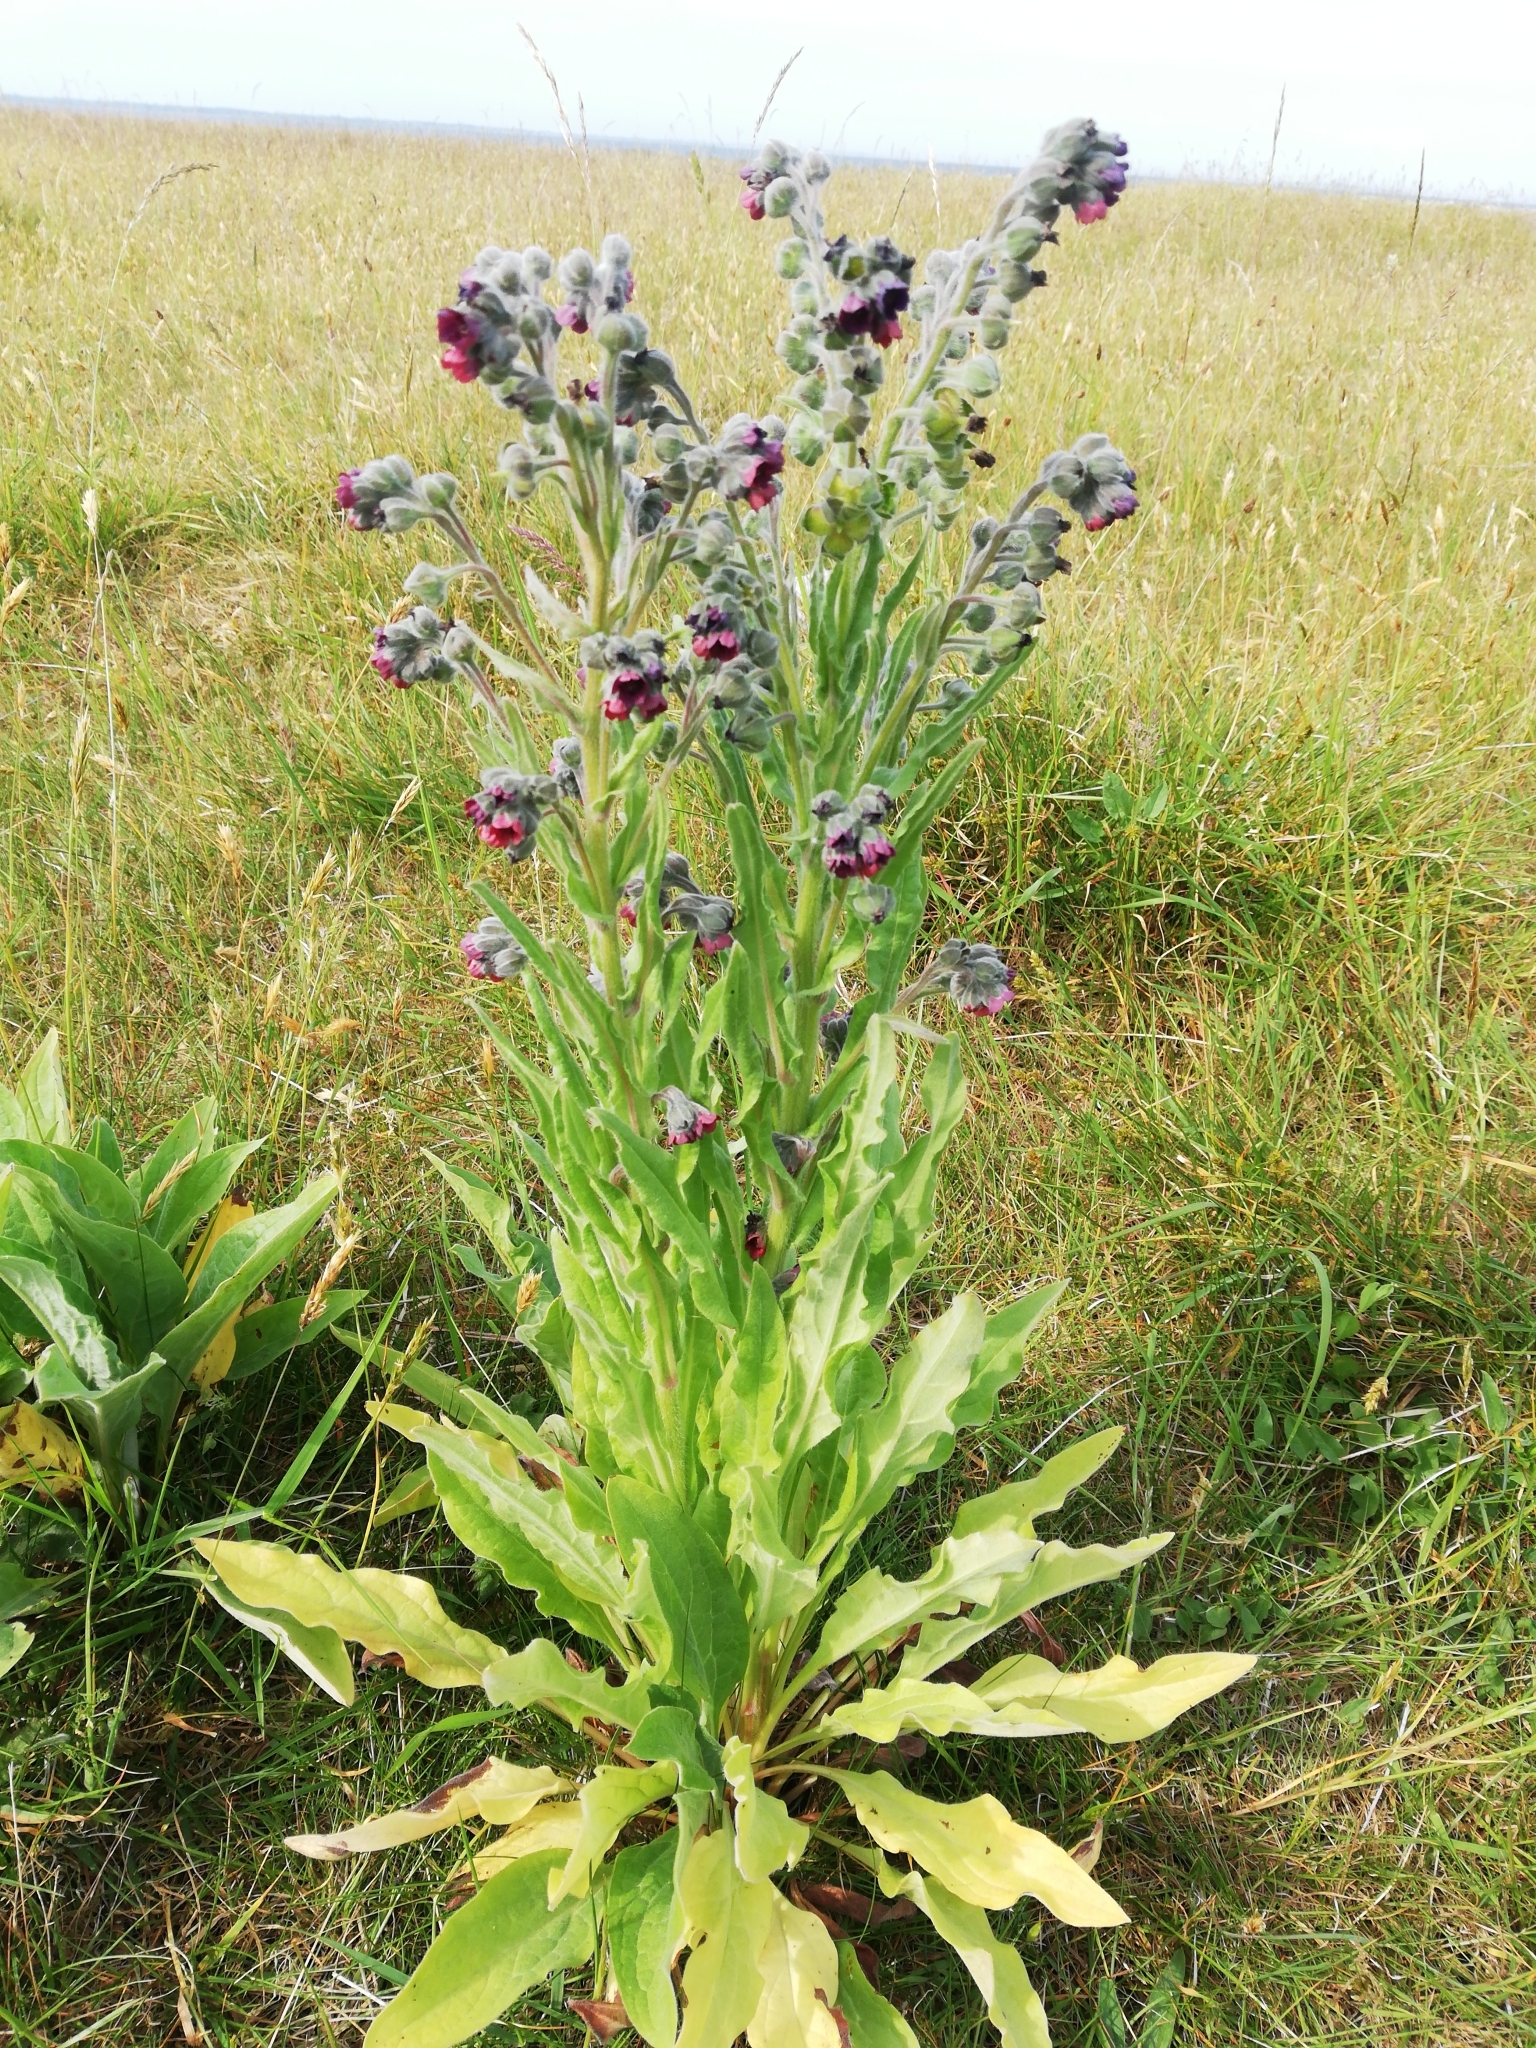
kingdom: Plantae
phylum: Tracheophyta
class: Magnoliopsida
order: Boraginales
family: Boraginaceae
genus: Cynoglossum
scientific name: Cynoglossum officinale
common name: Hound's-tongue
